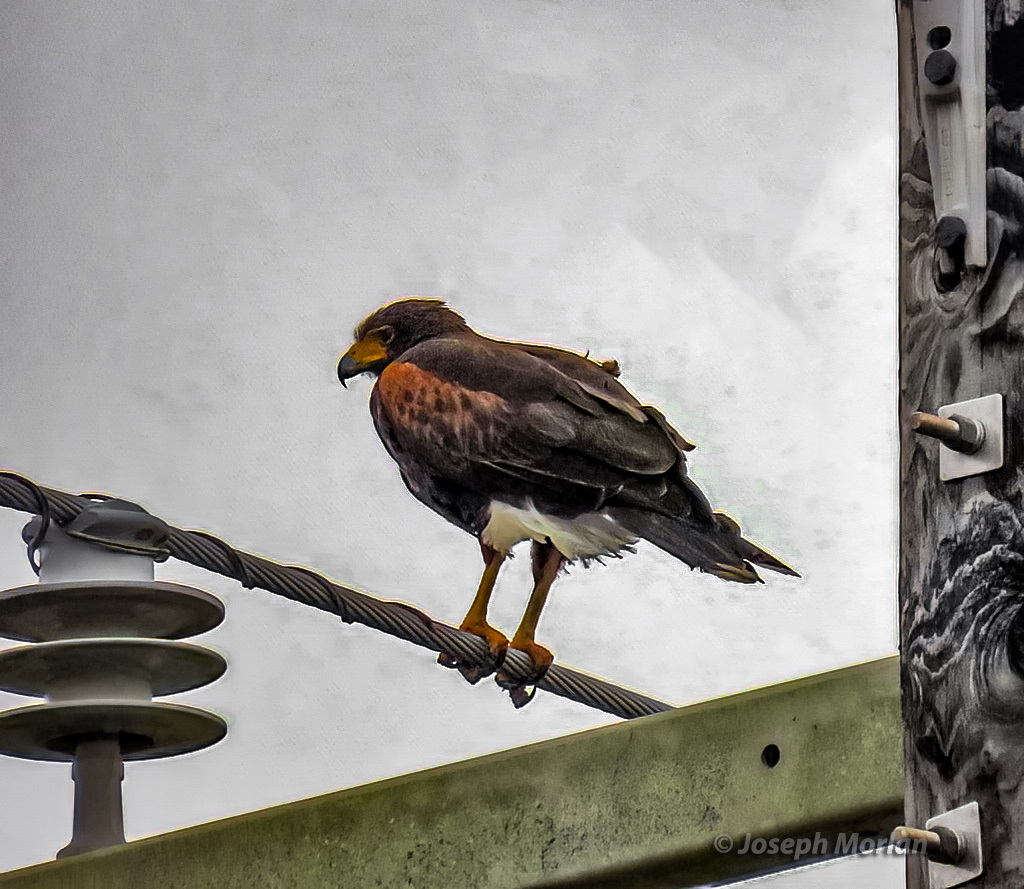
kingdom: Animalia
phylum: Chordata
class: Aves
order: Accipitriformes
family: Accipitridae
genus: Parabuteo
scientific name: Parabuteo unicinctus
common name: Harris's hawk
